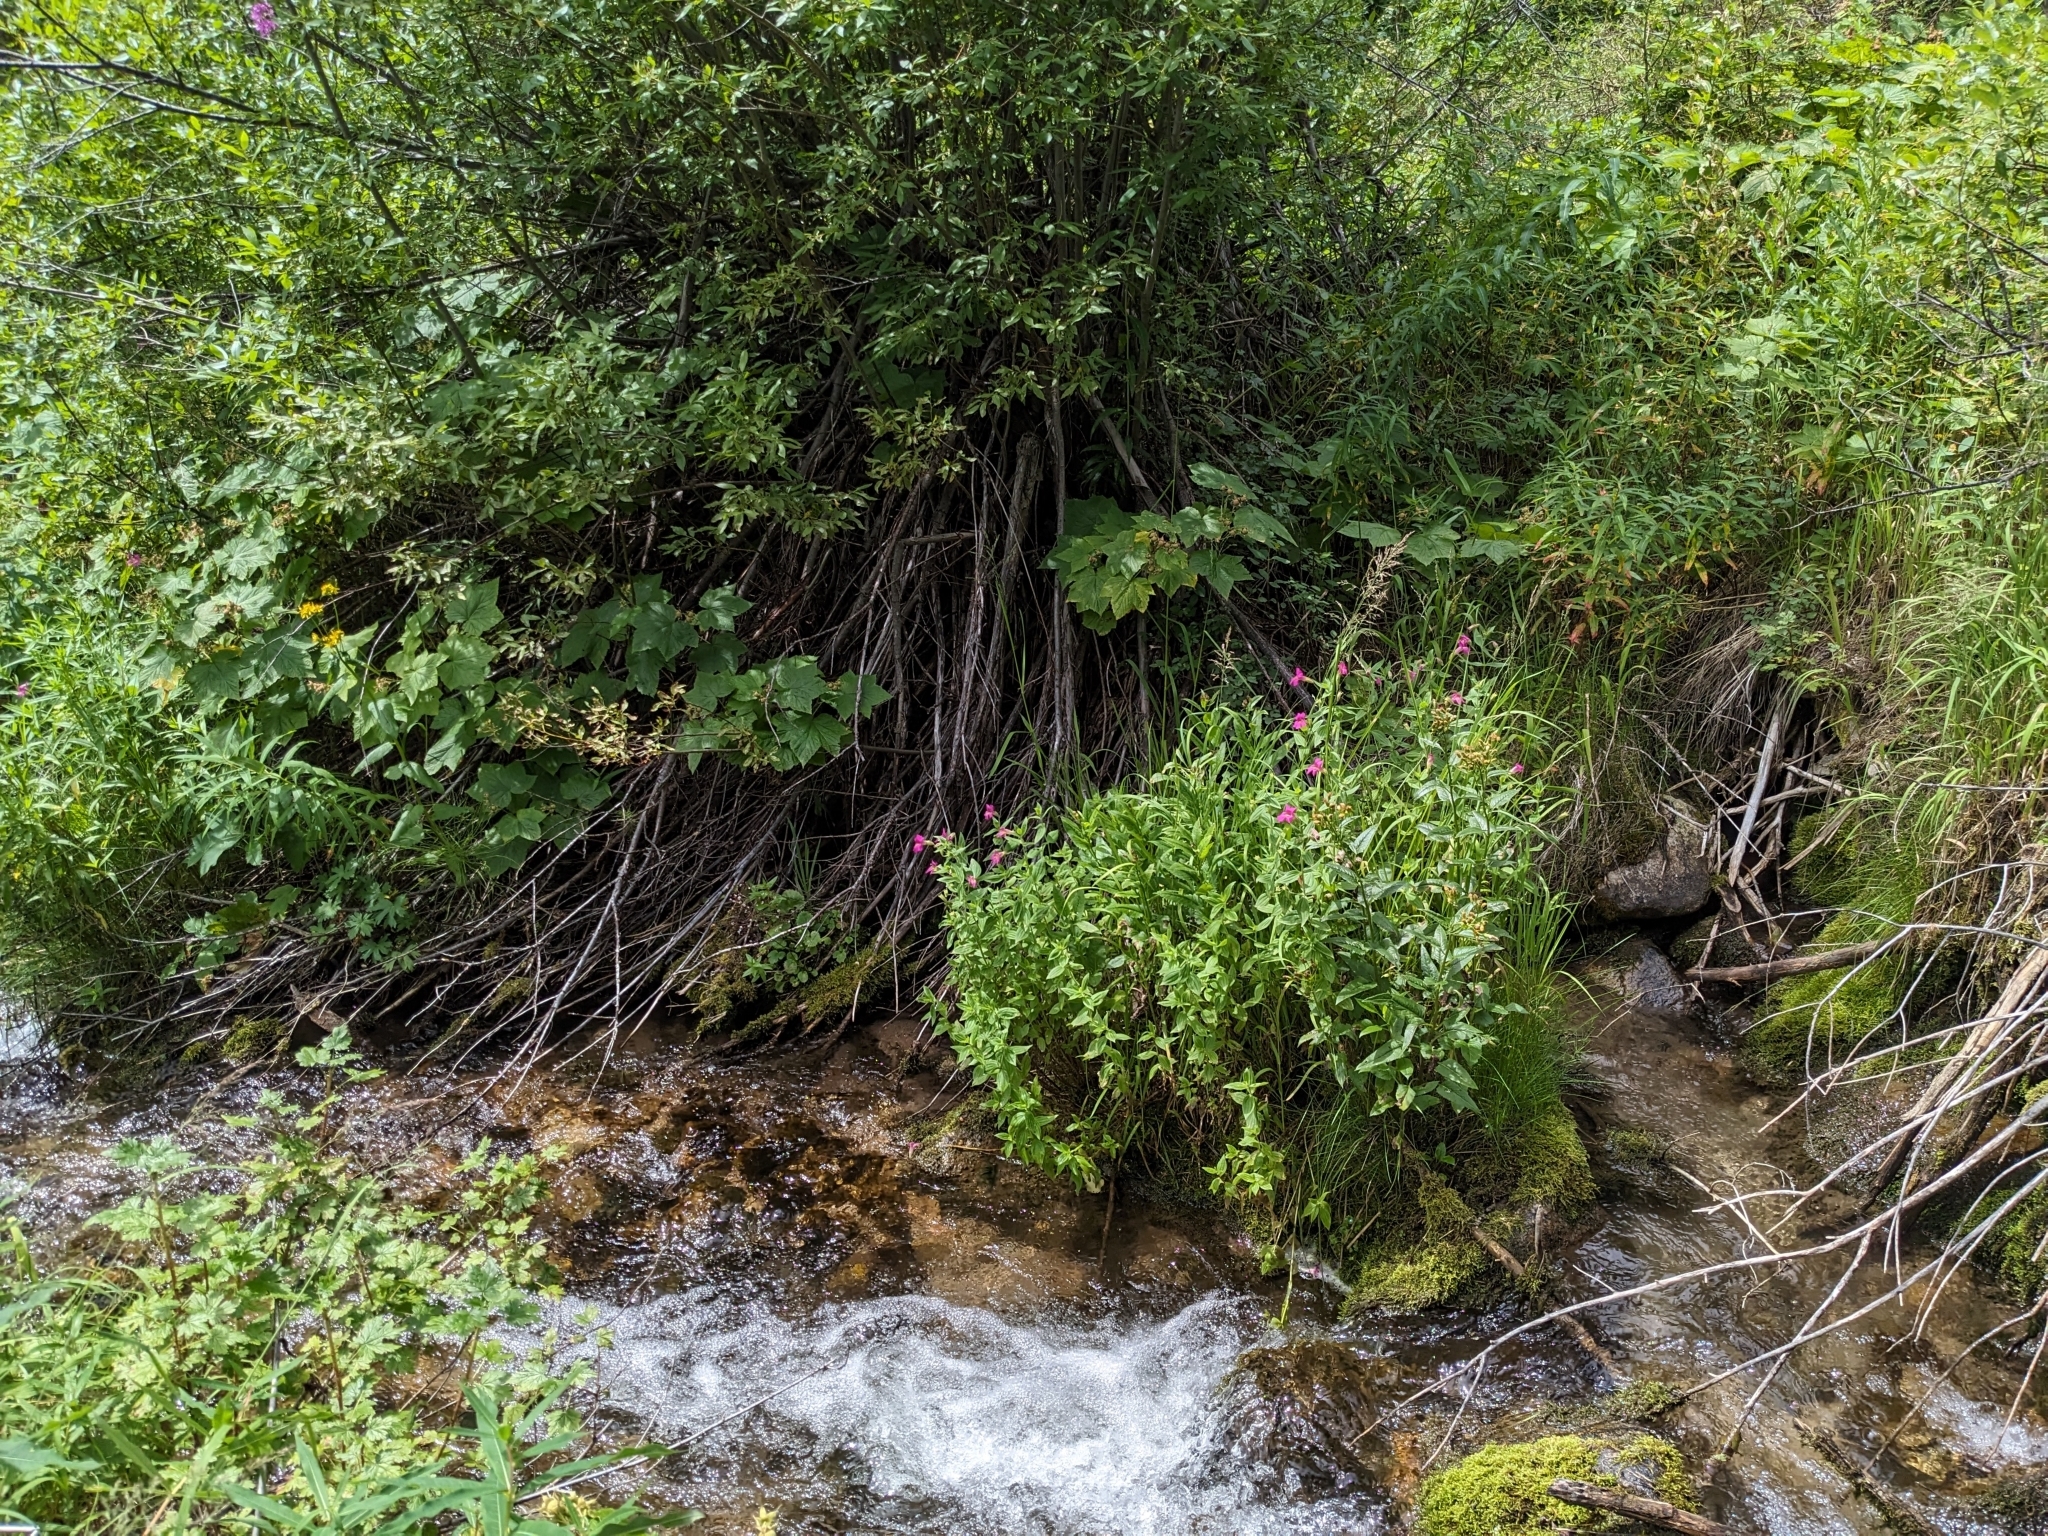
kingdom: Plantae
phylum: Tracheophyta
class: Magnoliopsida
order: Lamiales
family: Phrymaceae
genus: Erythranthe
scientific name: Erythranthe lewisii
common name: Lewis's monkey-flower
